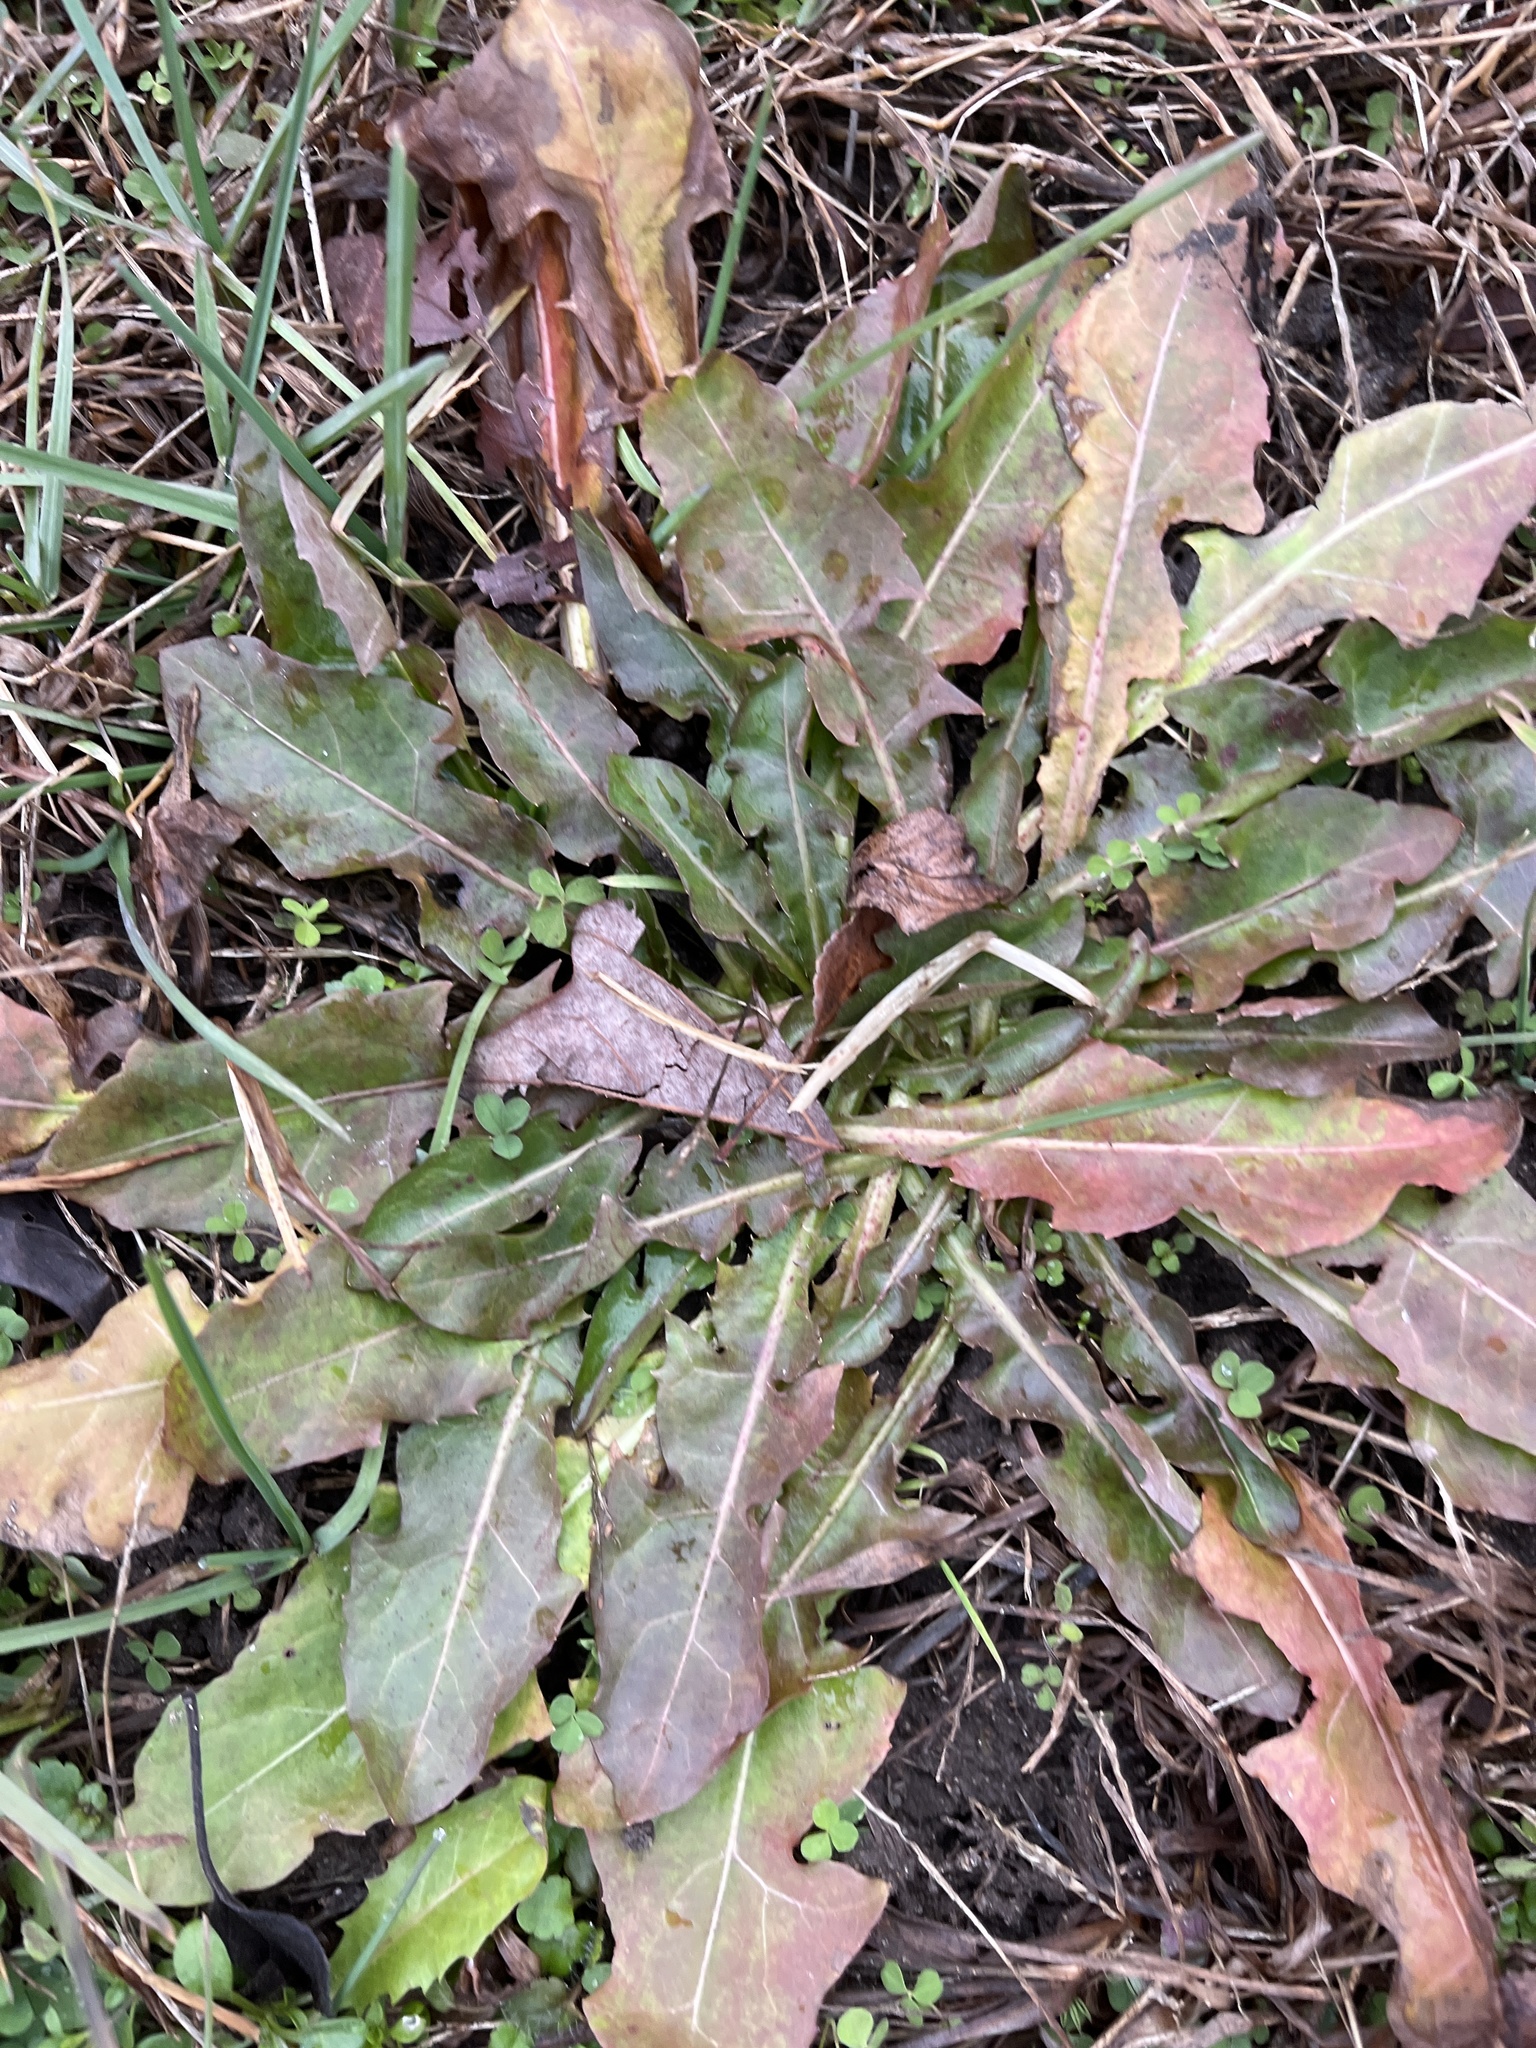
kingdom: Plantae
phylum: Tracheophyta
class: Magnoliopsida
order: Asterales
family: Asteraceae
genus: Taraxacum
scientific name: Taraxacum officinale
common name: Common dandelion
